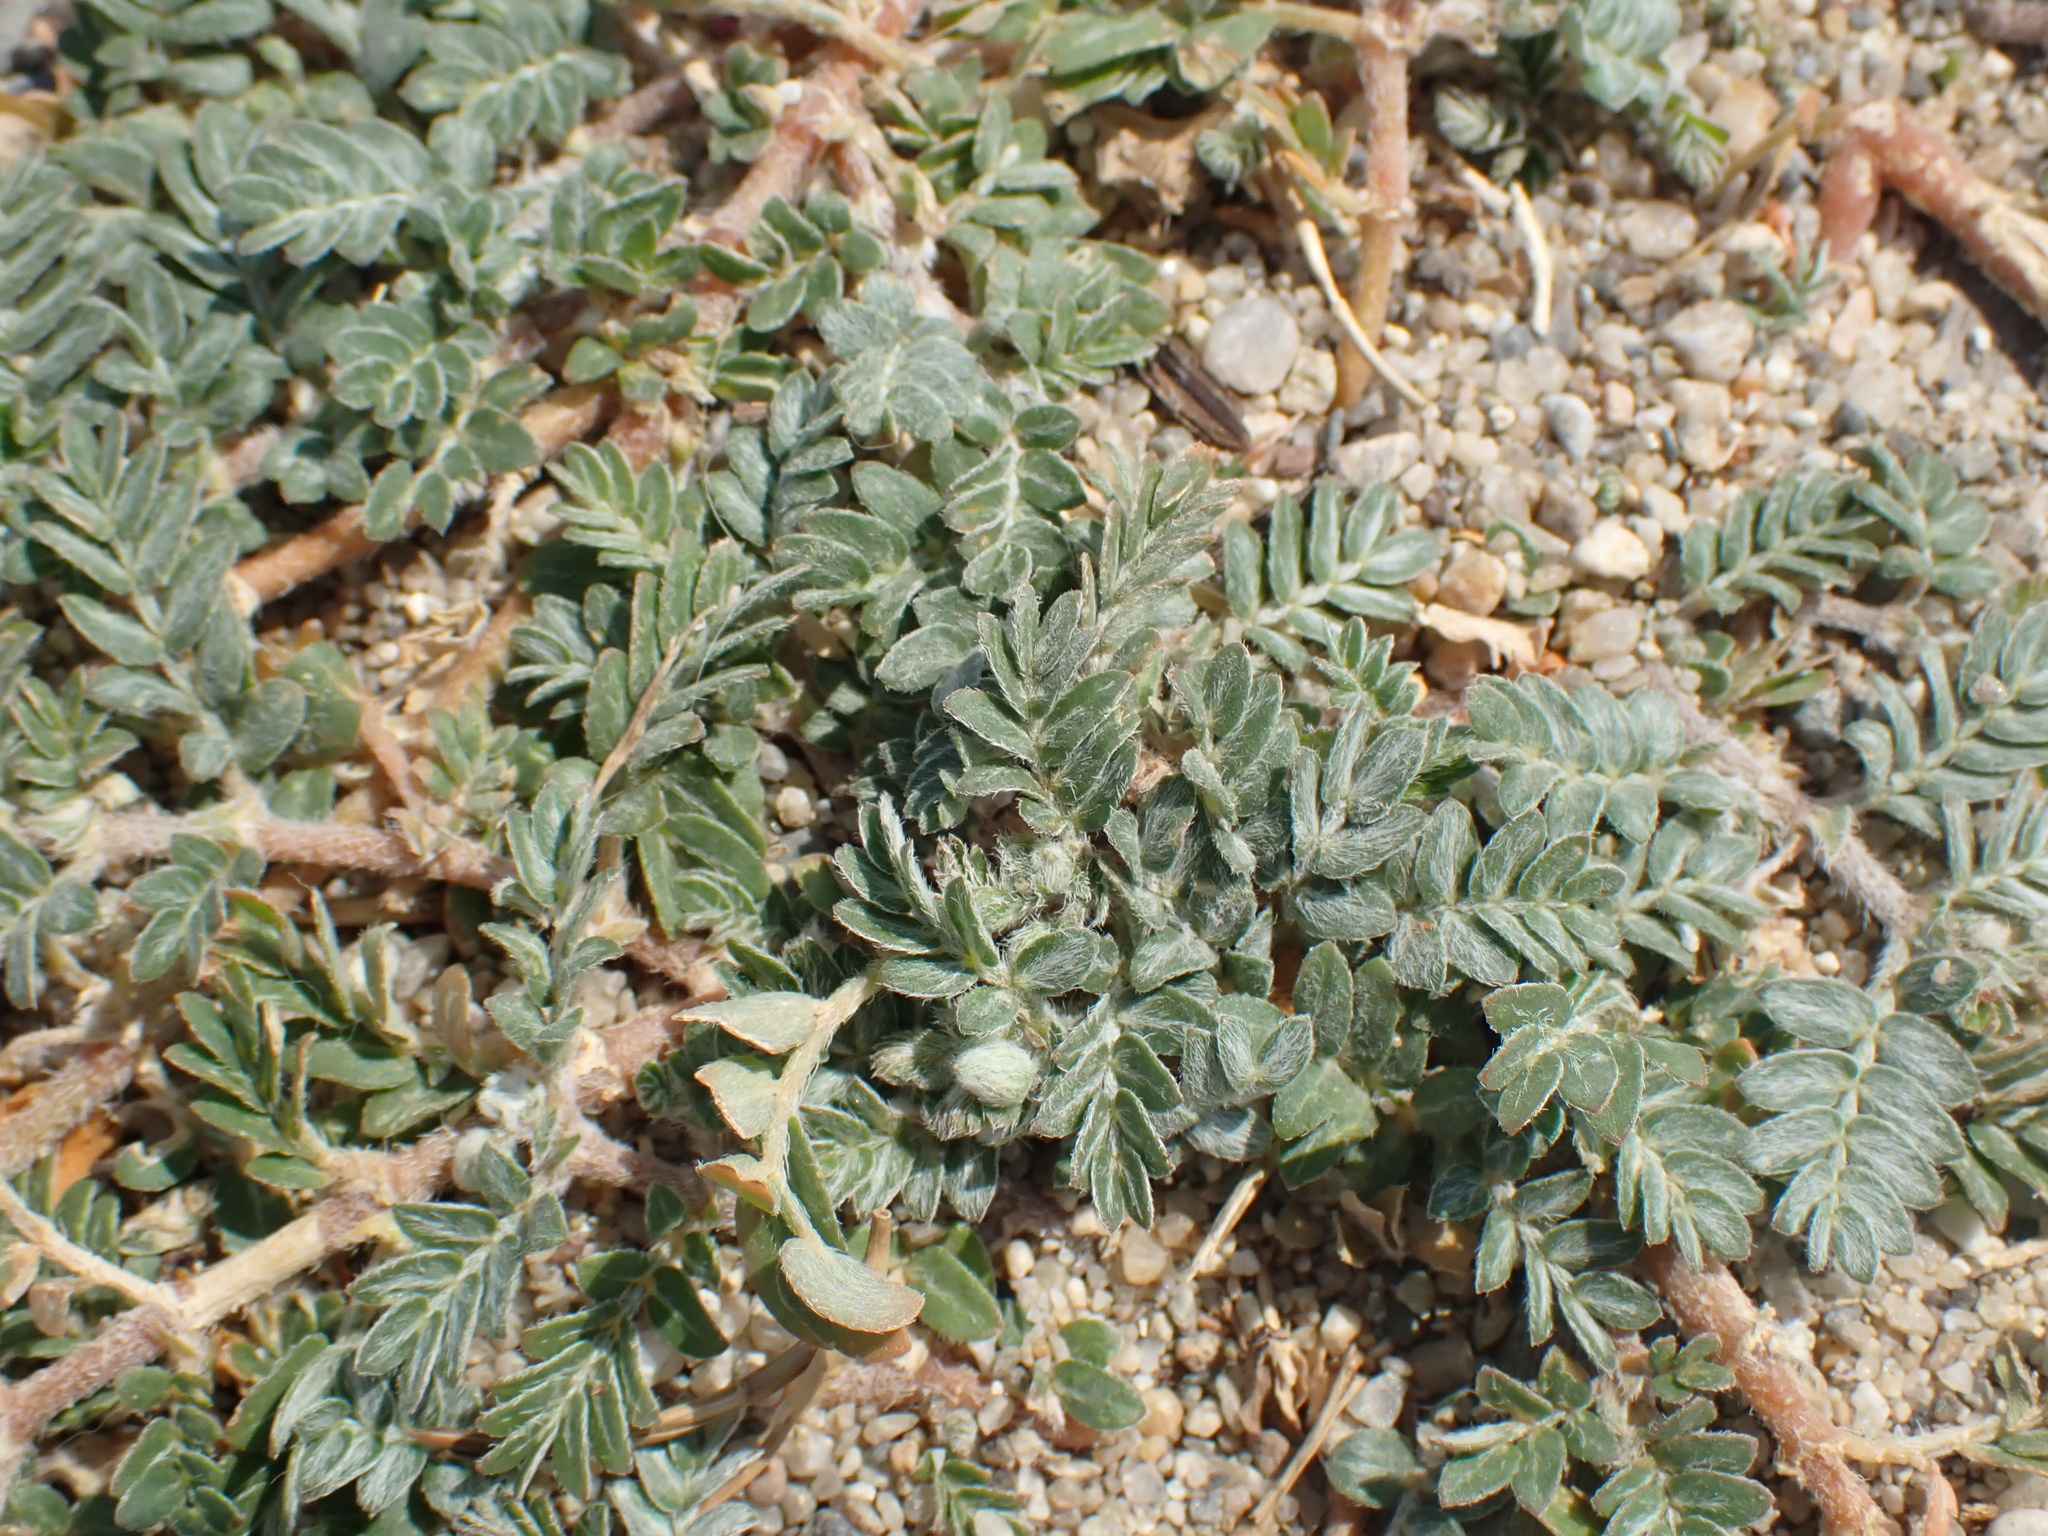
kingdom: Plantae
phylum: Tracheophyta
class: Magnoliopsida
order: Zygophyllales
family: Zygophyllaceae
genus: Tribulus
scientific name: Tribulus terrestris
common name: Puncturevine
